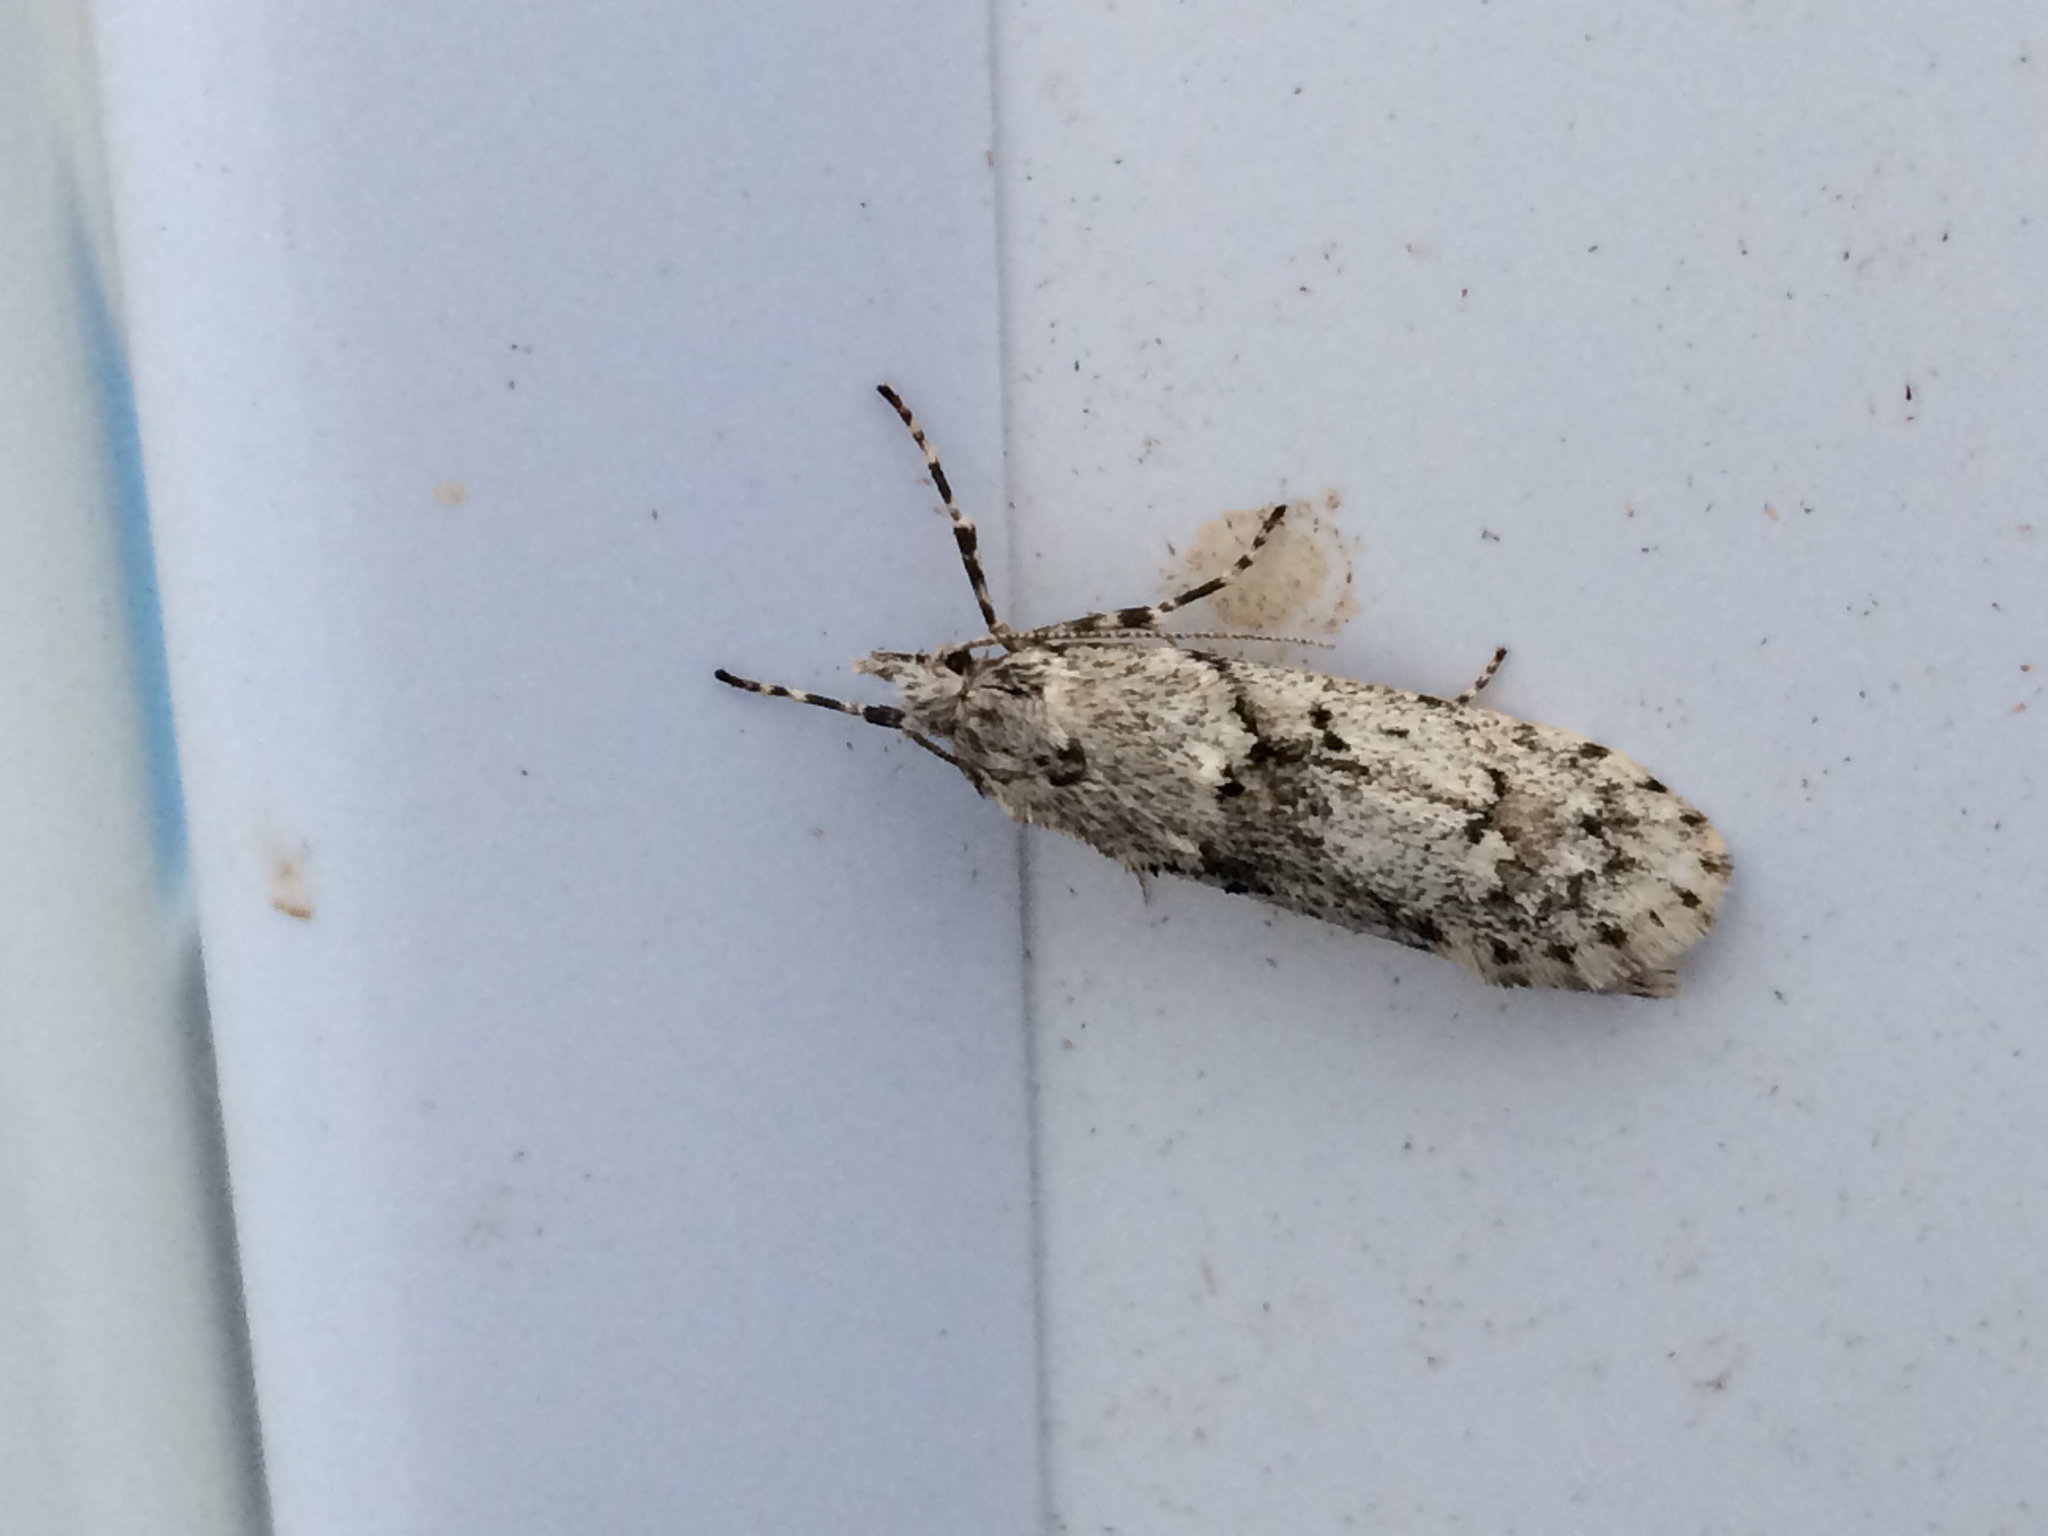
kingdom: Animalia
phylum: Arthropoda
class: Insecta
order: Lepidoptera
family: Lypusidae
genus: Diurnea
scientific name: Diurnea fagella
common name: March tubic
